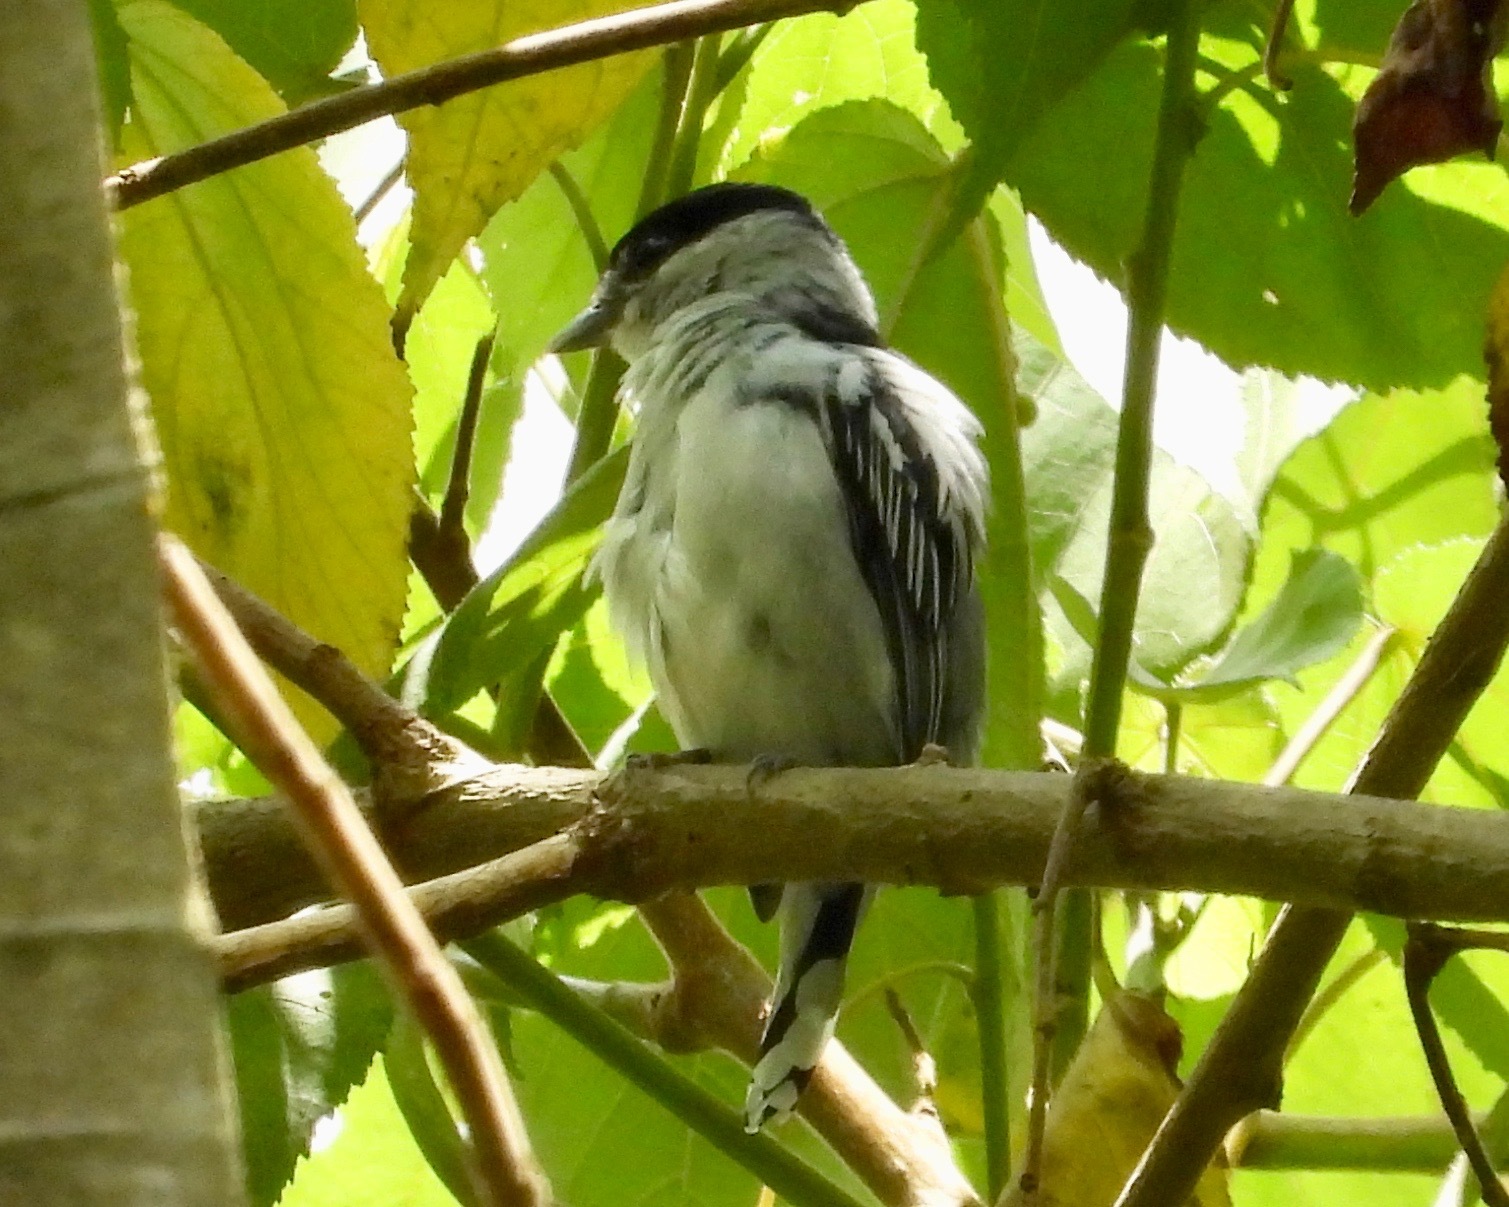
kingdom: Animalia
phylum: Chordata
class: Aves
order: Passeriformes
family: Cotingidae
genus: Pachyramphus
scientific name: Pachyramphus major
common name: Gray-collared becard
